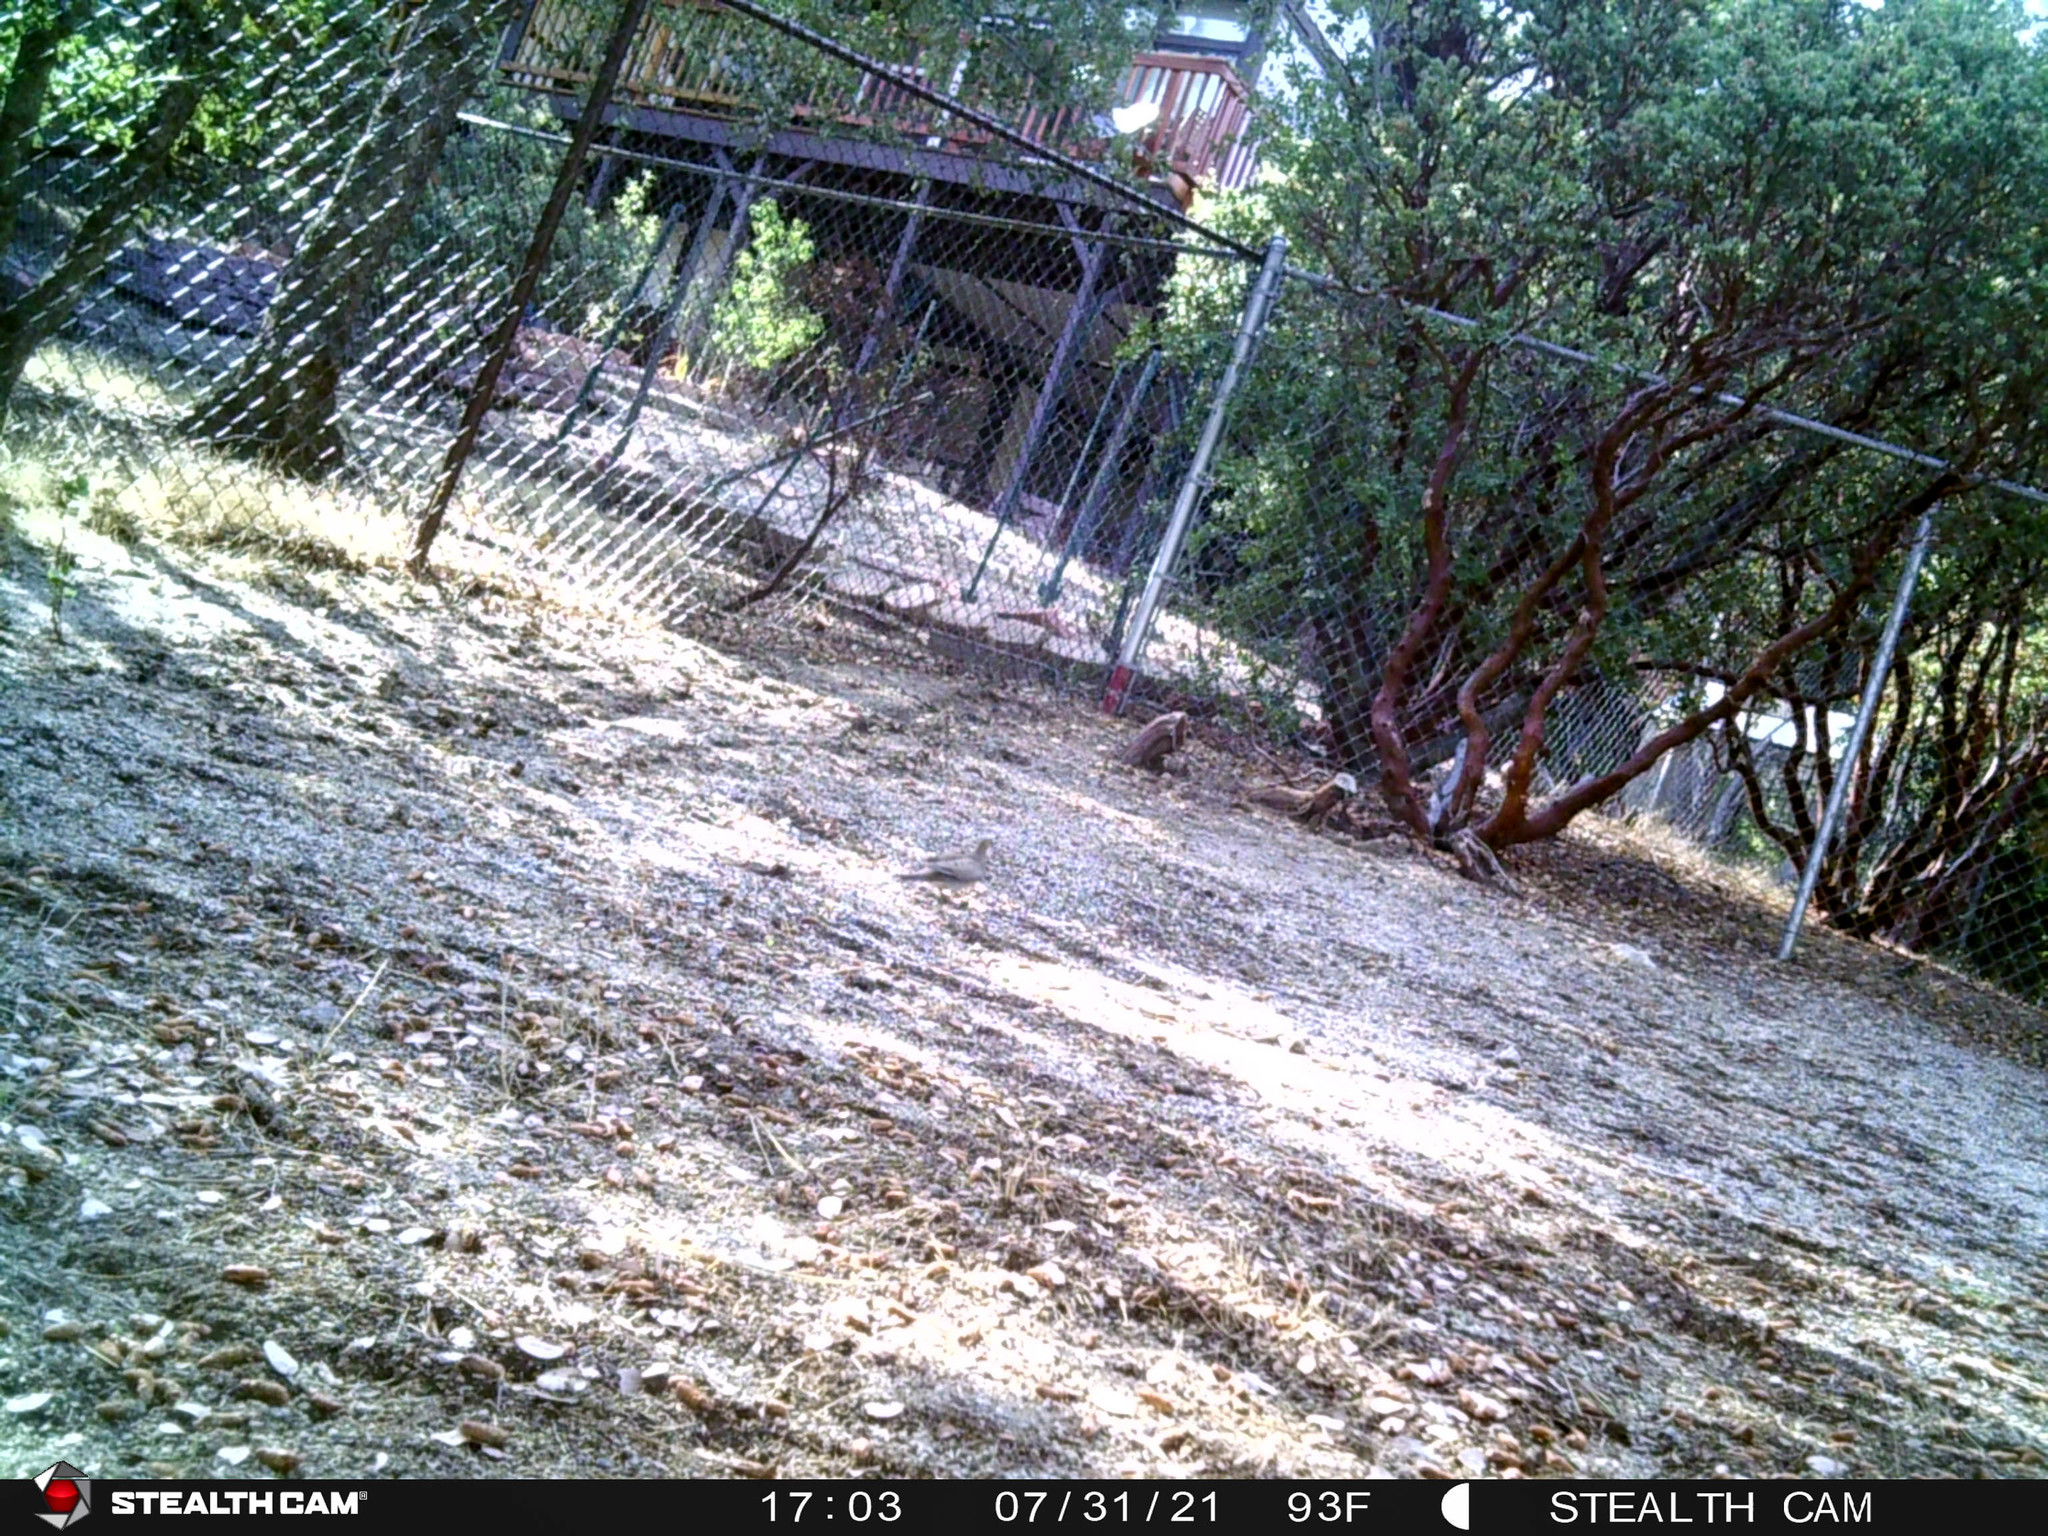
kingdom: Animalia
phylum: Chordata
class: Aves
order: Columbiformes
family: Columbidae
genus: Zenaida
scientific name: Zenaida macroura
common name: Mourning dove
